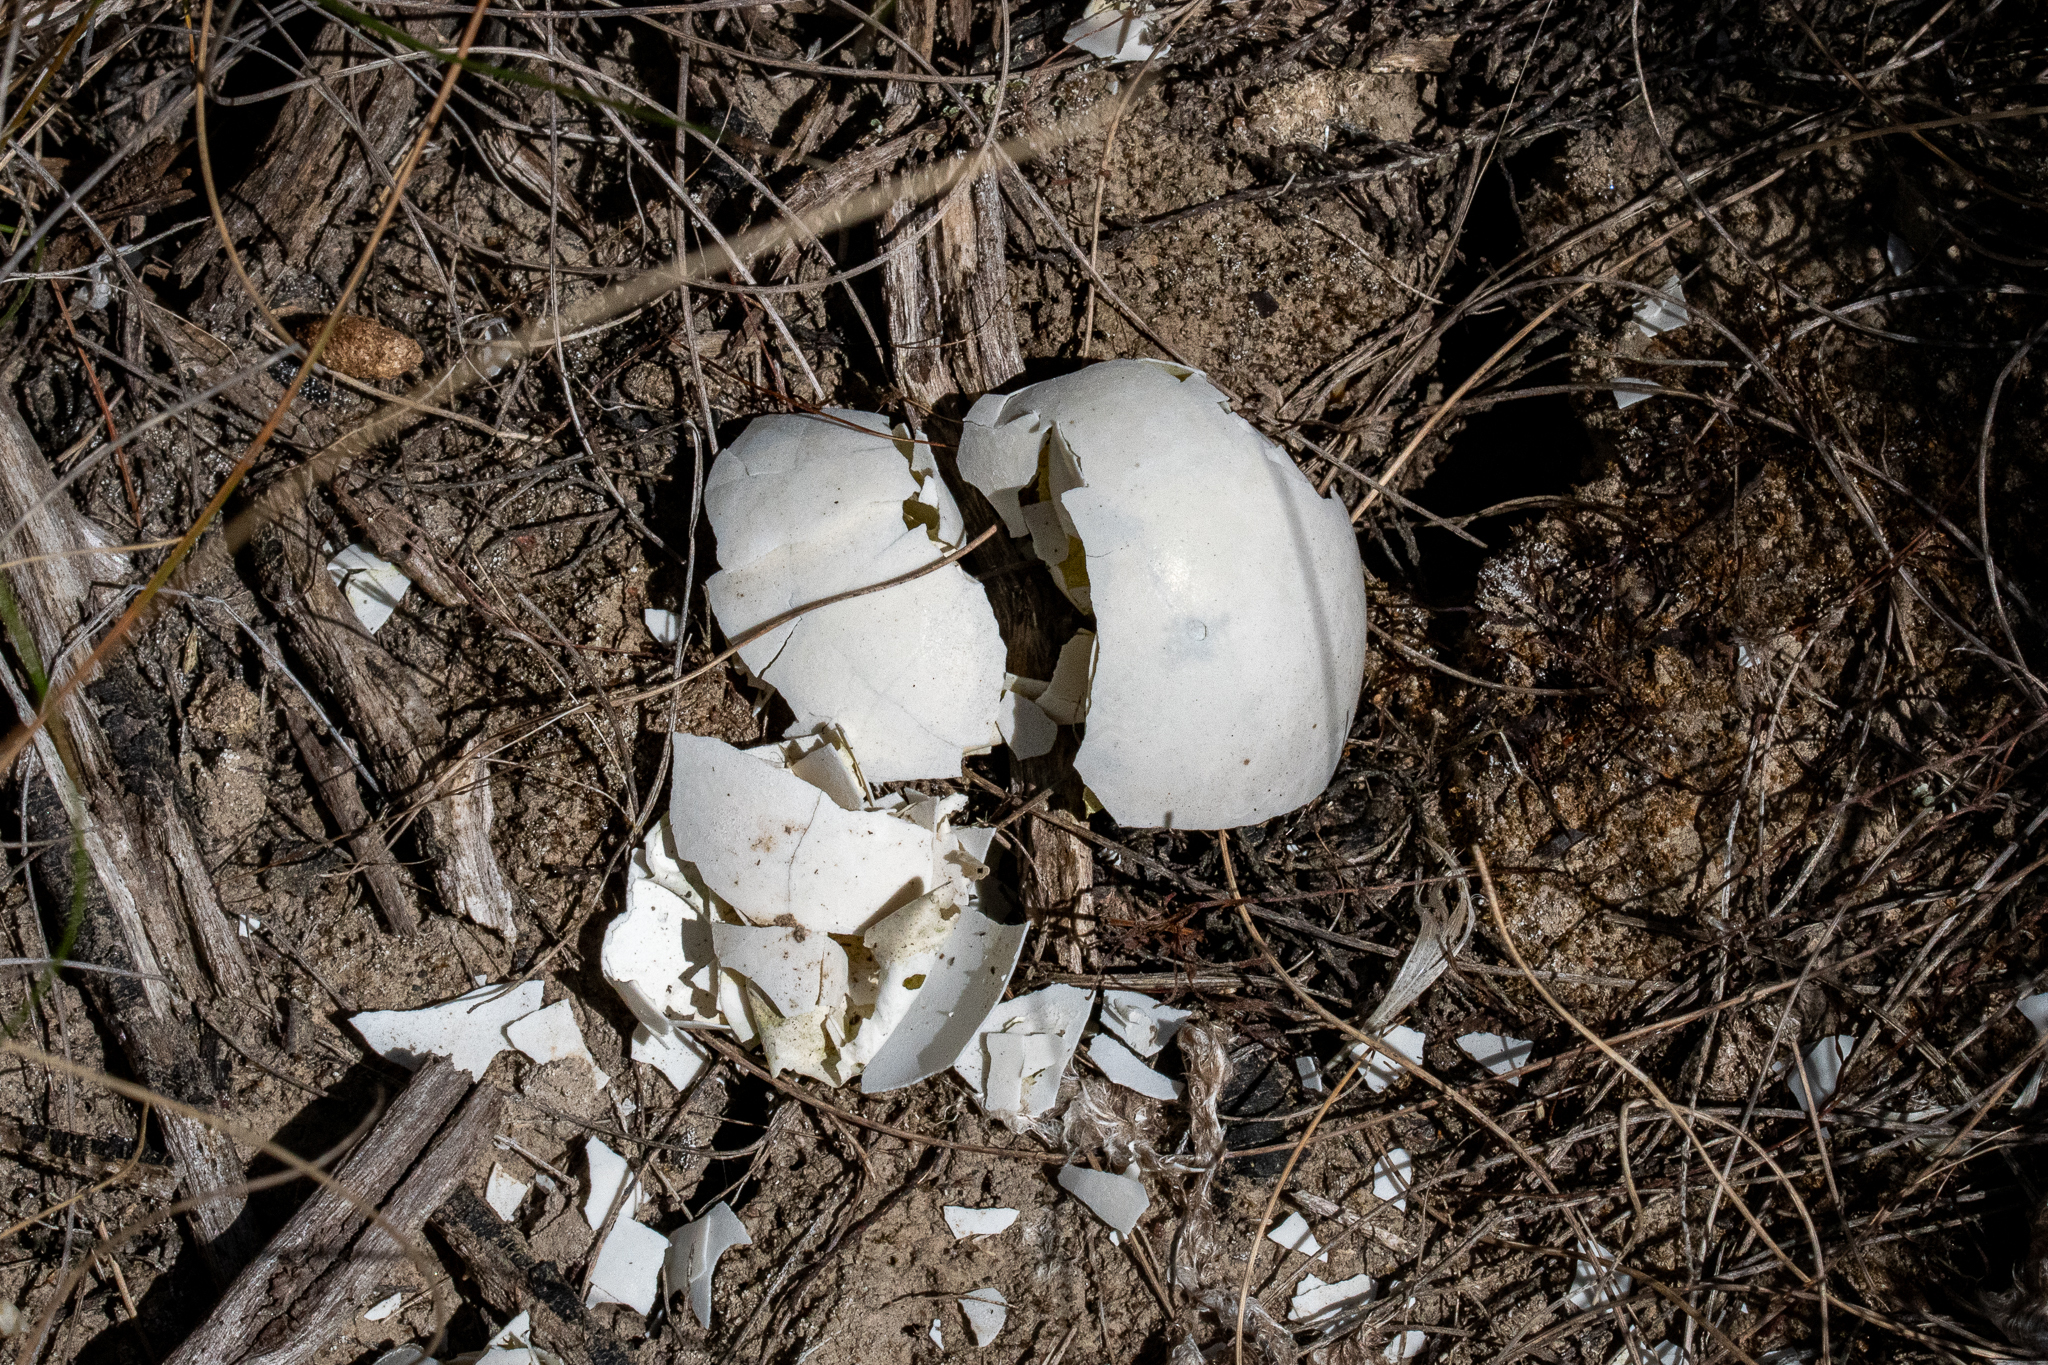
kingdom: Animalia
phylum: Chordata
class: Aves
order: Galliformes
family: Numididae
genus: Numida
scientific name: Numida meleagris
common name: Helmeted guineafowl
